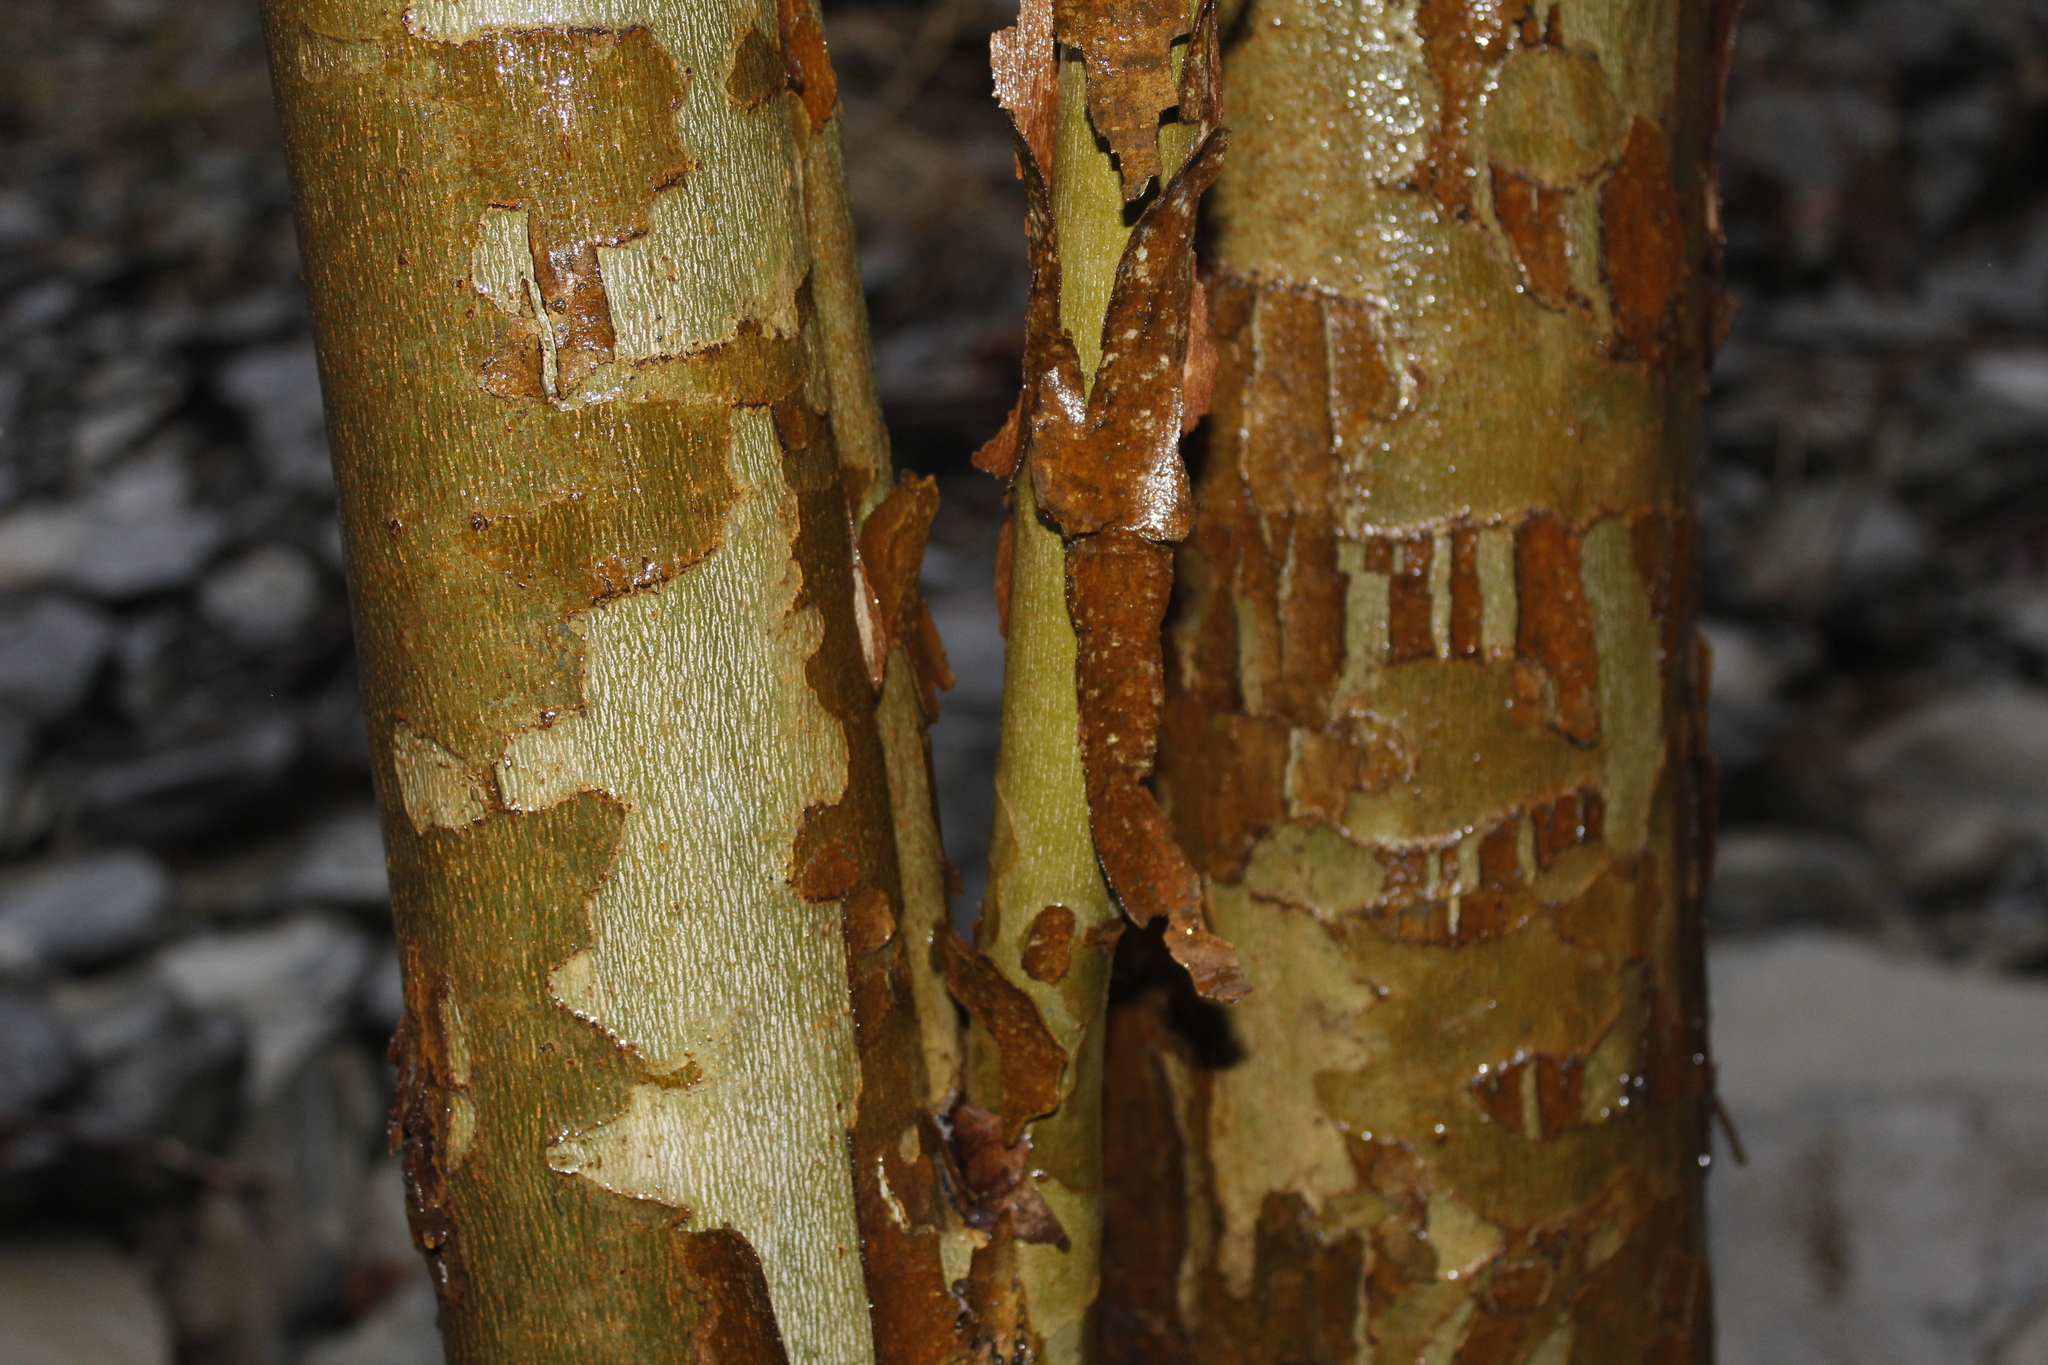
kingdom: Plantae
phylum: Tracheophyta
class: Magnoliopsida
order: Proteales
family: Platanaceae
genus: Platanus
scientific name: Platanus occidentalis
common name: American sycamore
